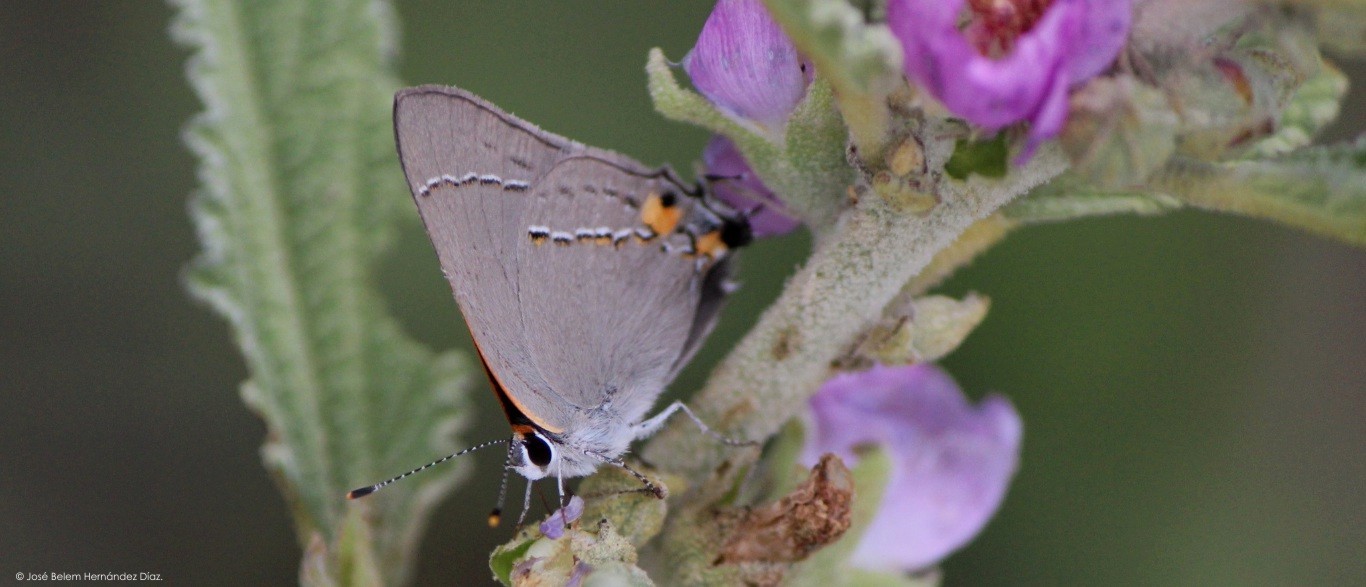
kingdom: Animalia
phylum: Arthropoda
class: Insecta
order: Lepidoptera
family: Lycaenidae
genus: Strymon
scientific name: Strymon melinus
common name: Gray hairstreak
